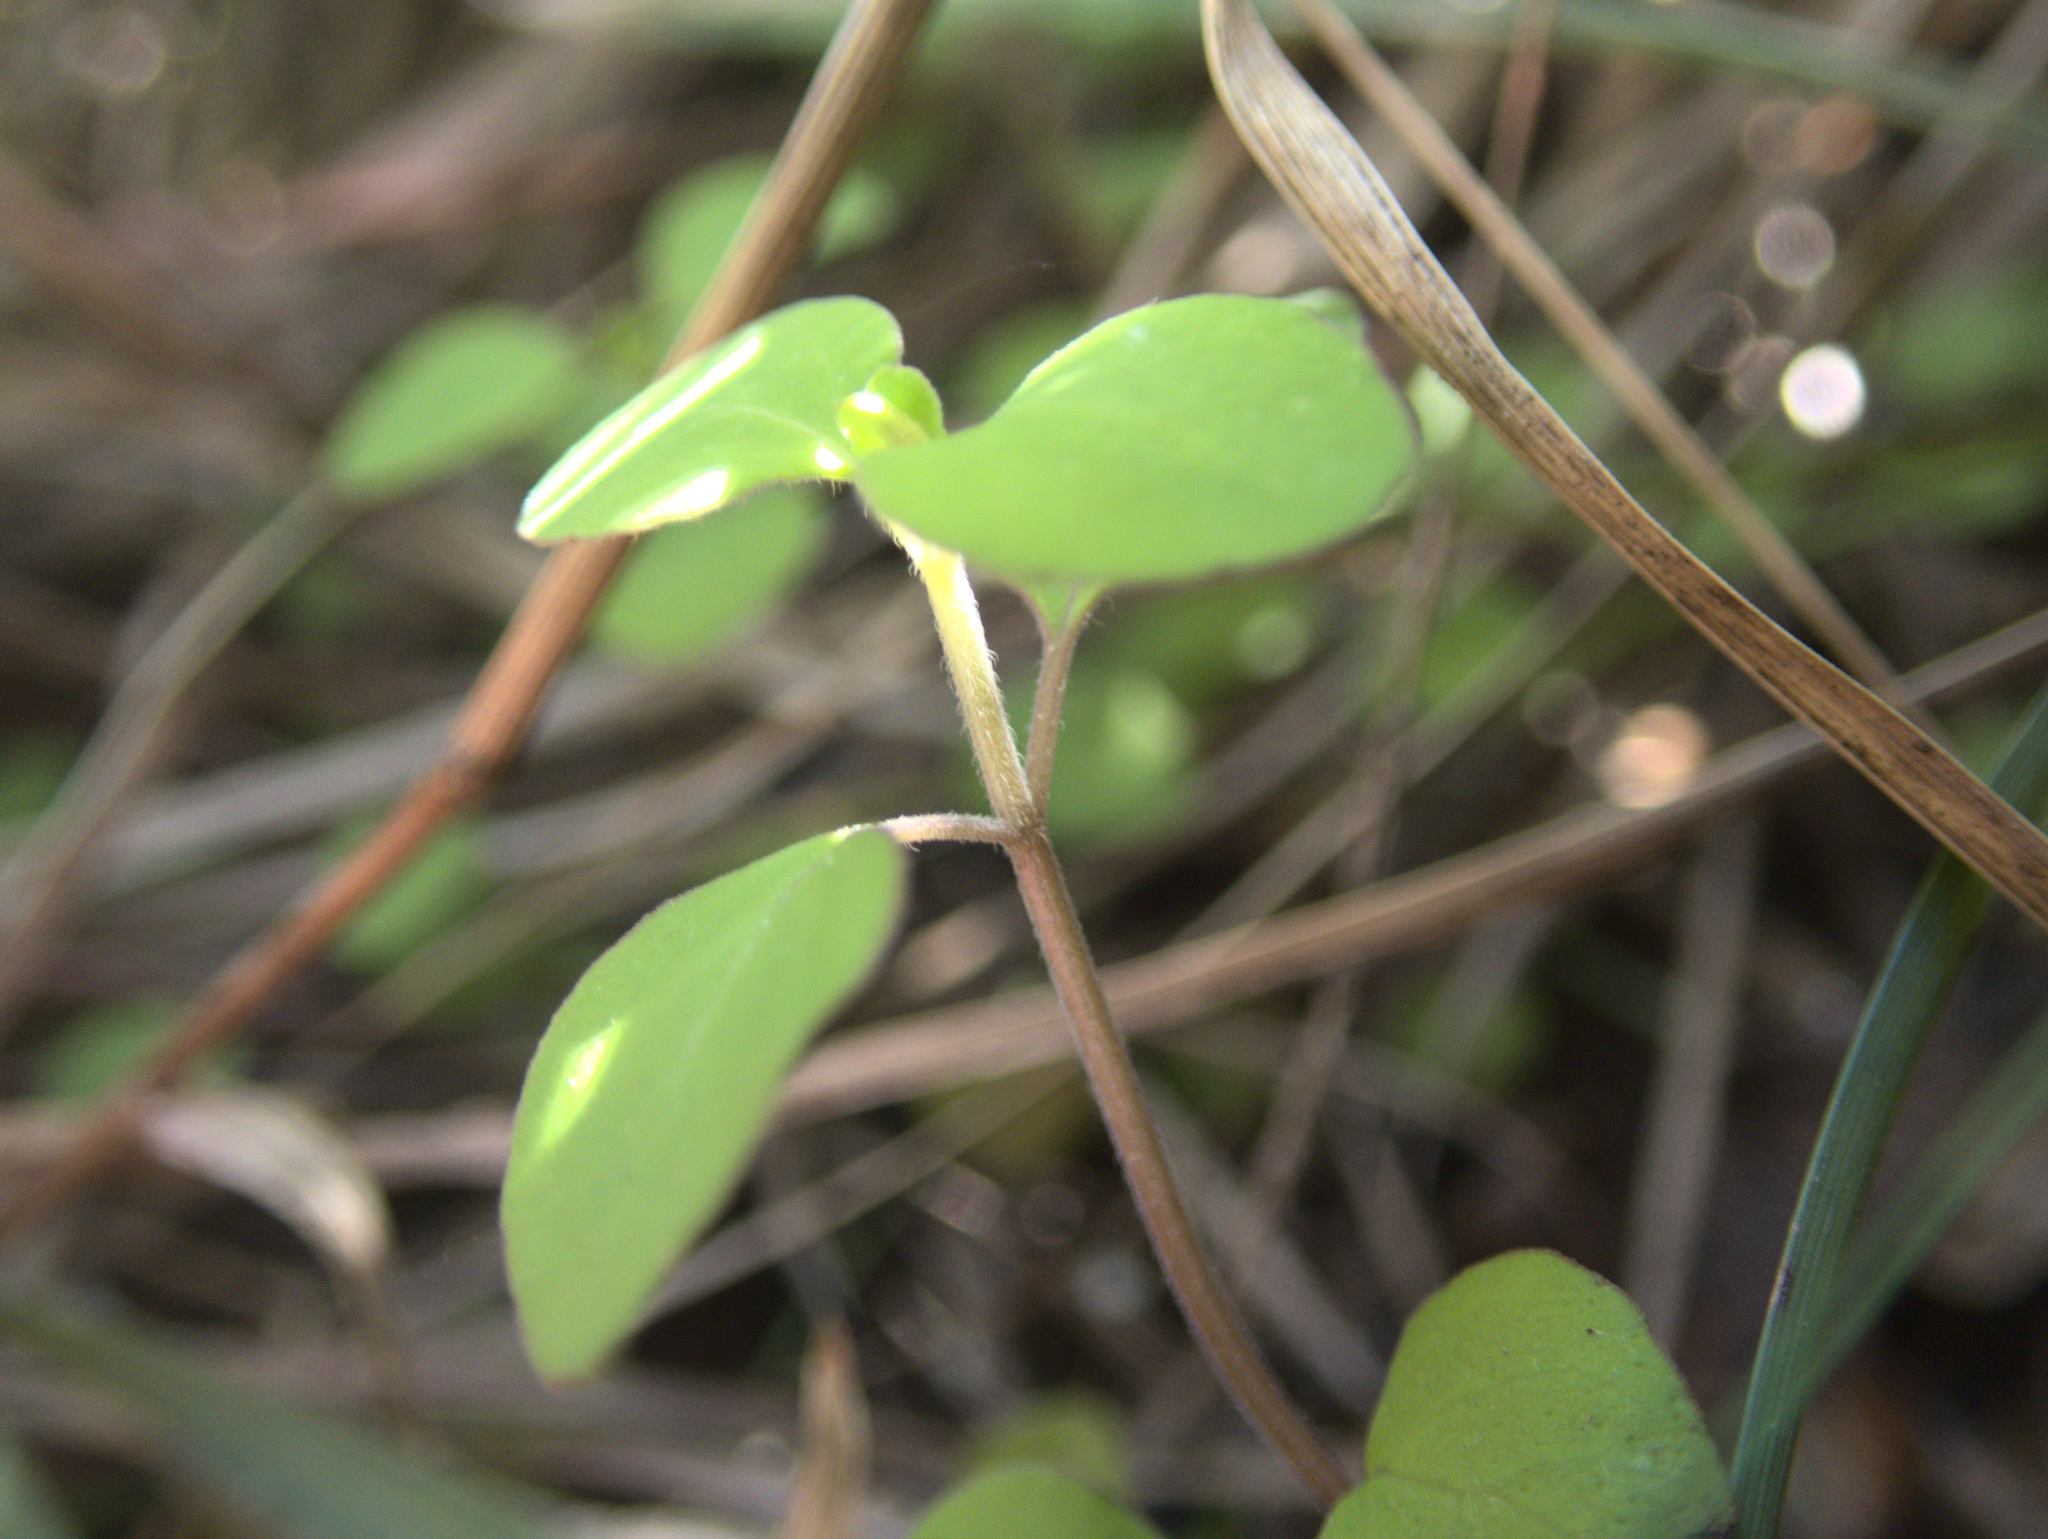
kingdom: Plantae
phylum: Tracheophyta
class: Magnoliopsida
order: Lamiales
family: Lamiaceae
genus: Mentha
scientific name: Mentha cunninghamii
